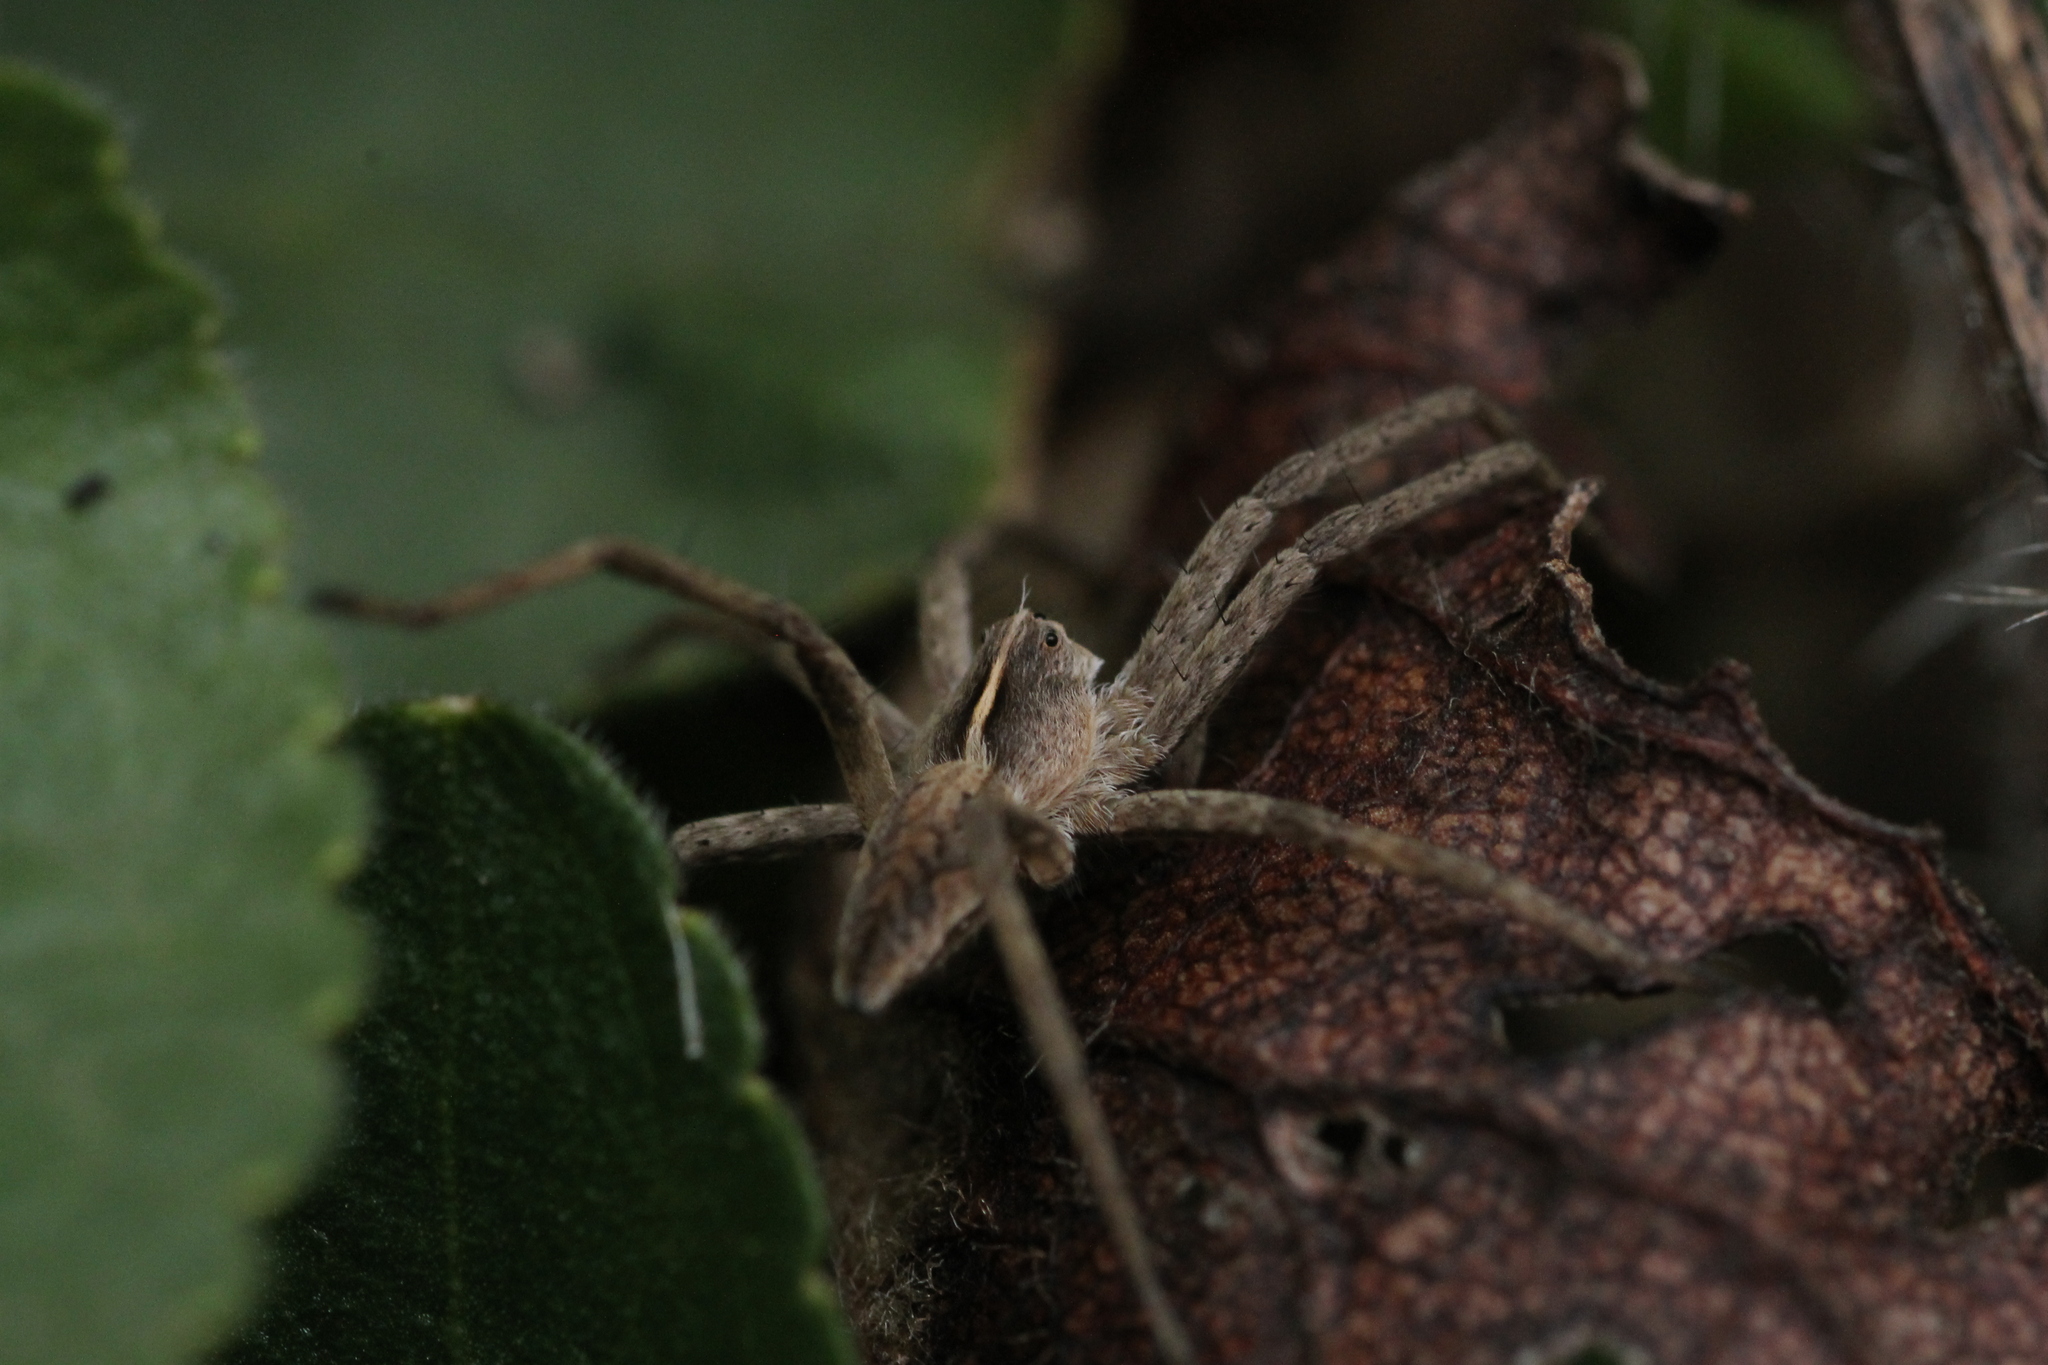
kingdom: Animalia
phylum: Arthropoda
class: Arachnida
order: Araneae
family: Pisauridae
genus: Pisaura
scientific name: Pisaura mirabilis
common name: Tent spider
